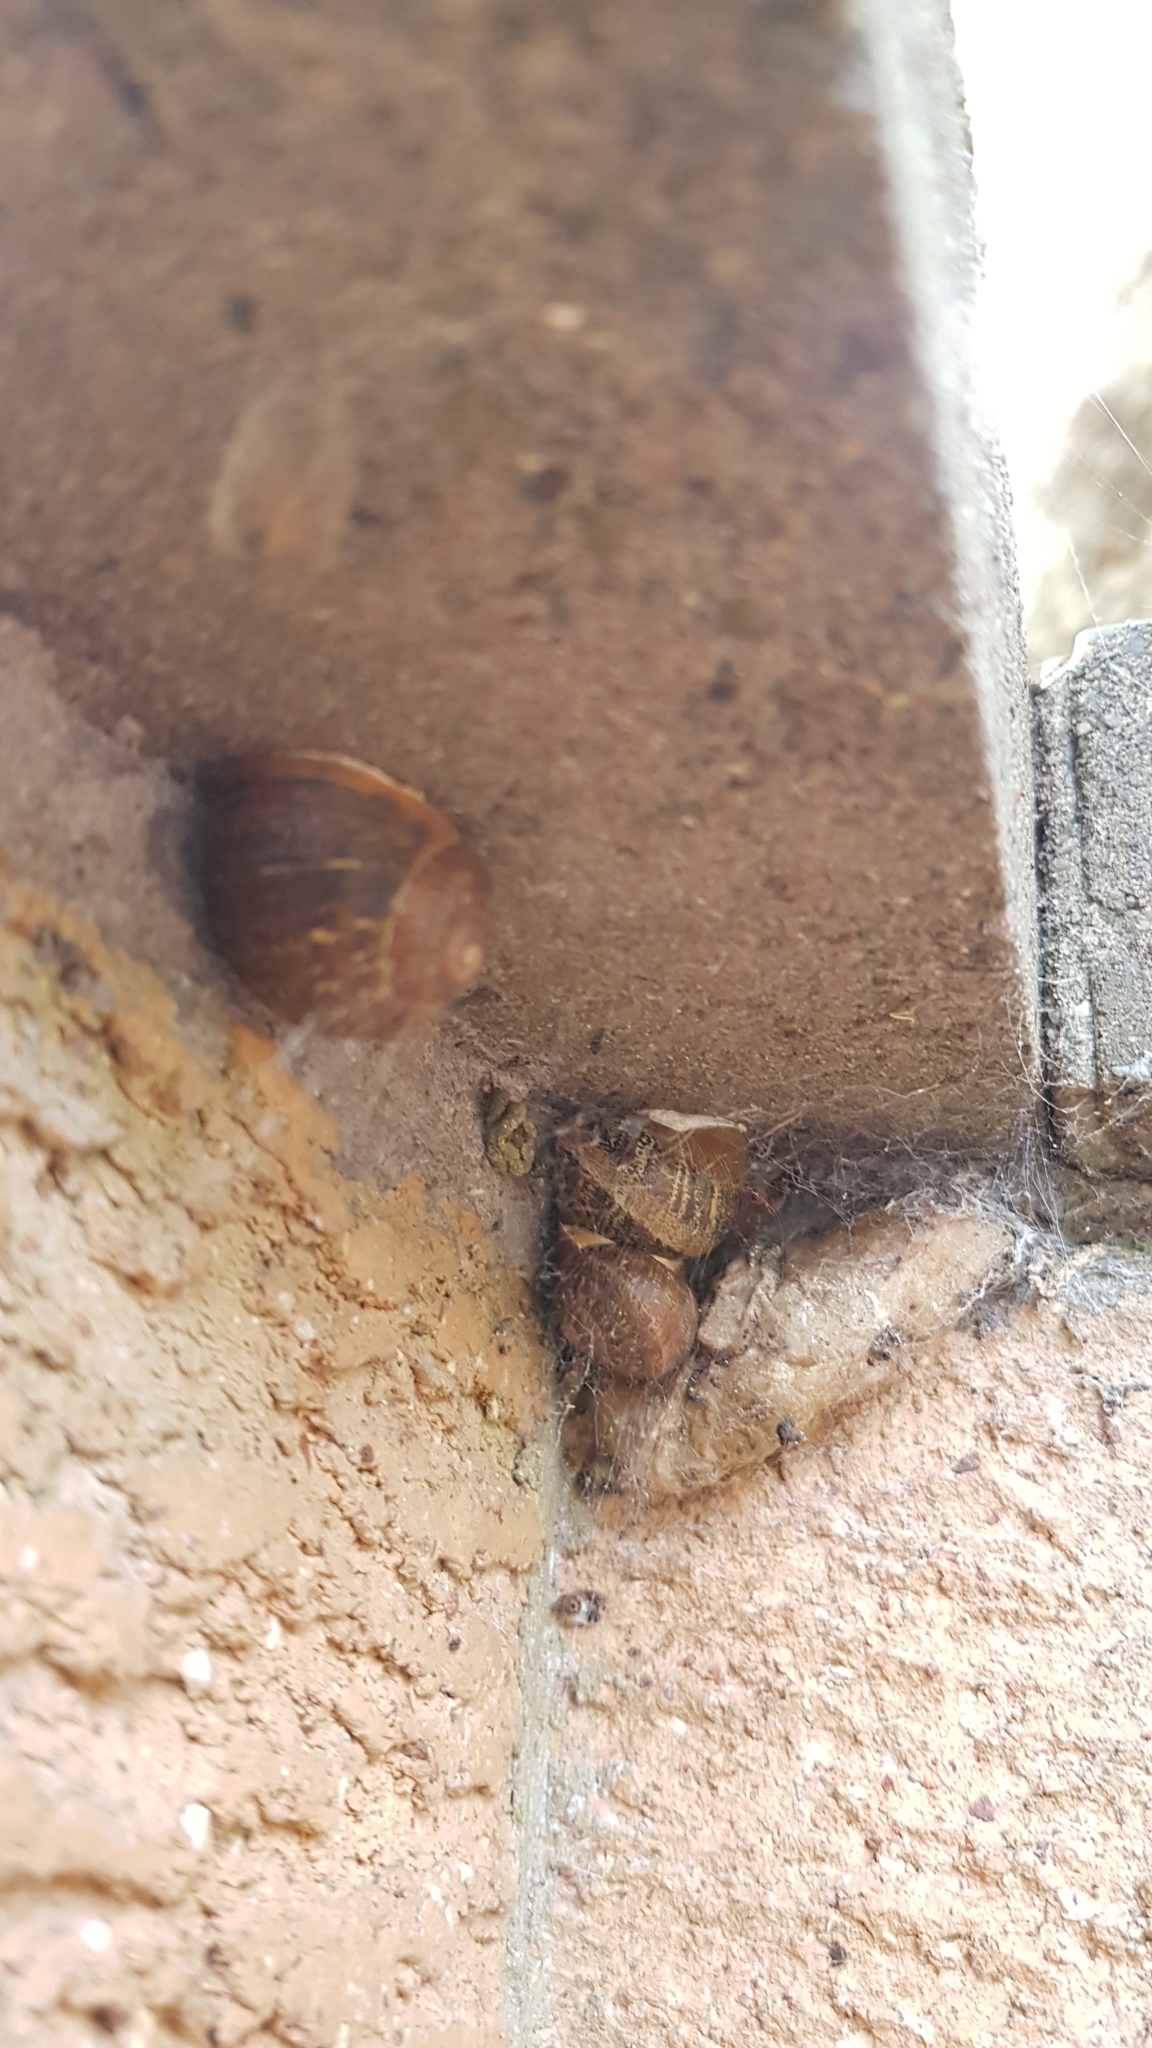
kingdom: Animalia
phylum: Mollusca
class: Gastropoda
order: Stylommatophora
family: Helicidae
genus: Cornu
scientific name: Cornu aspersum
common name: Brown garden snail
